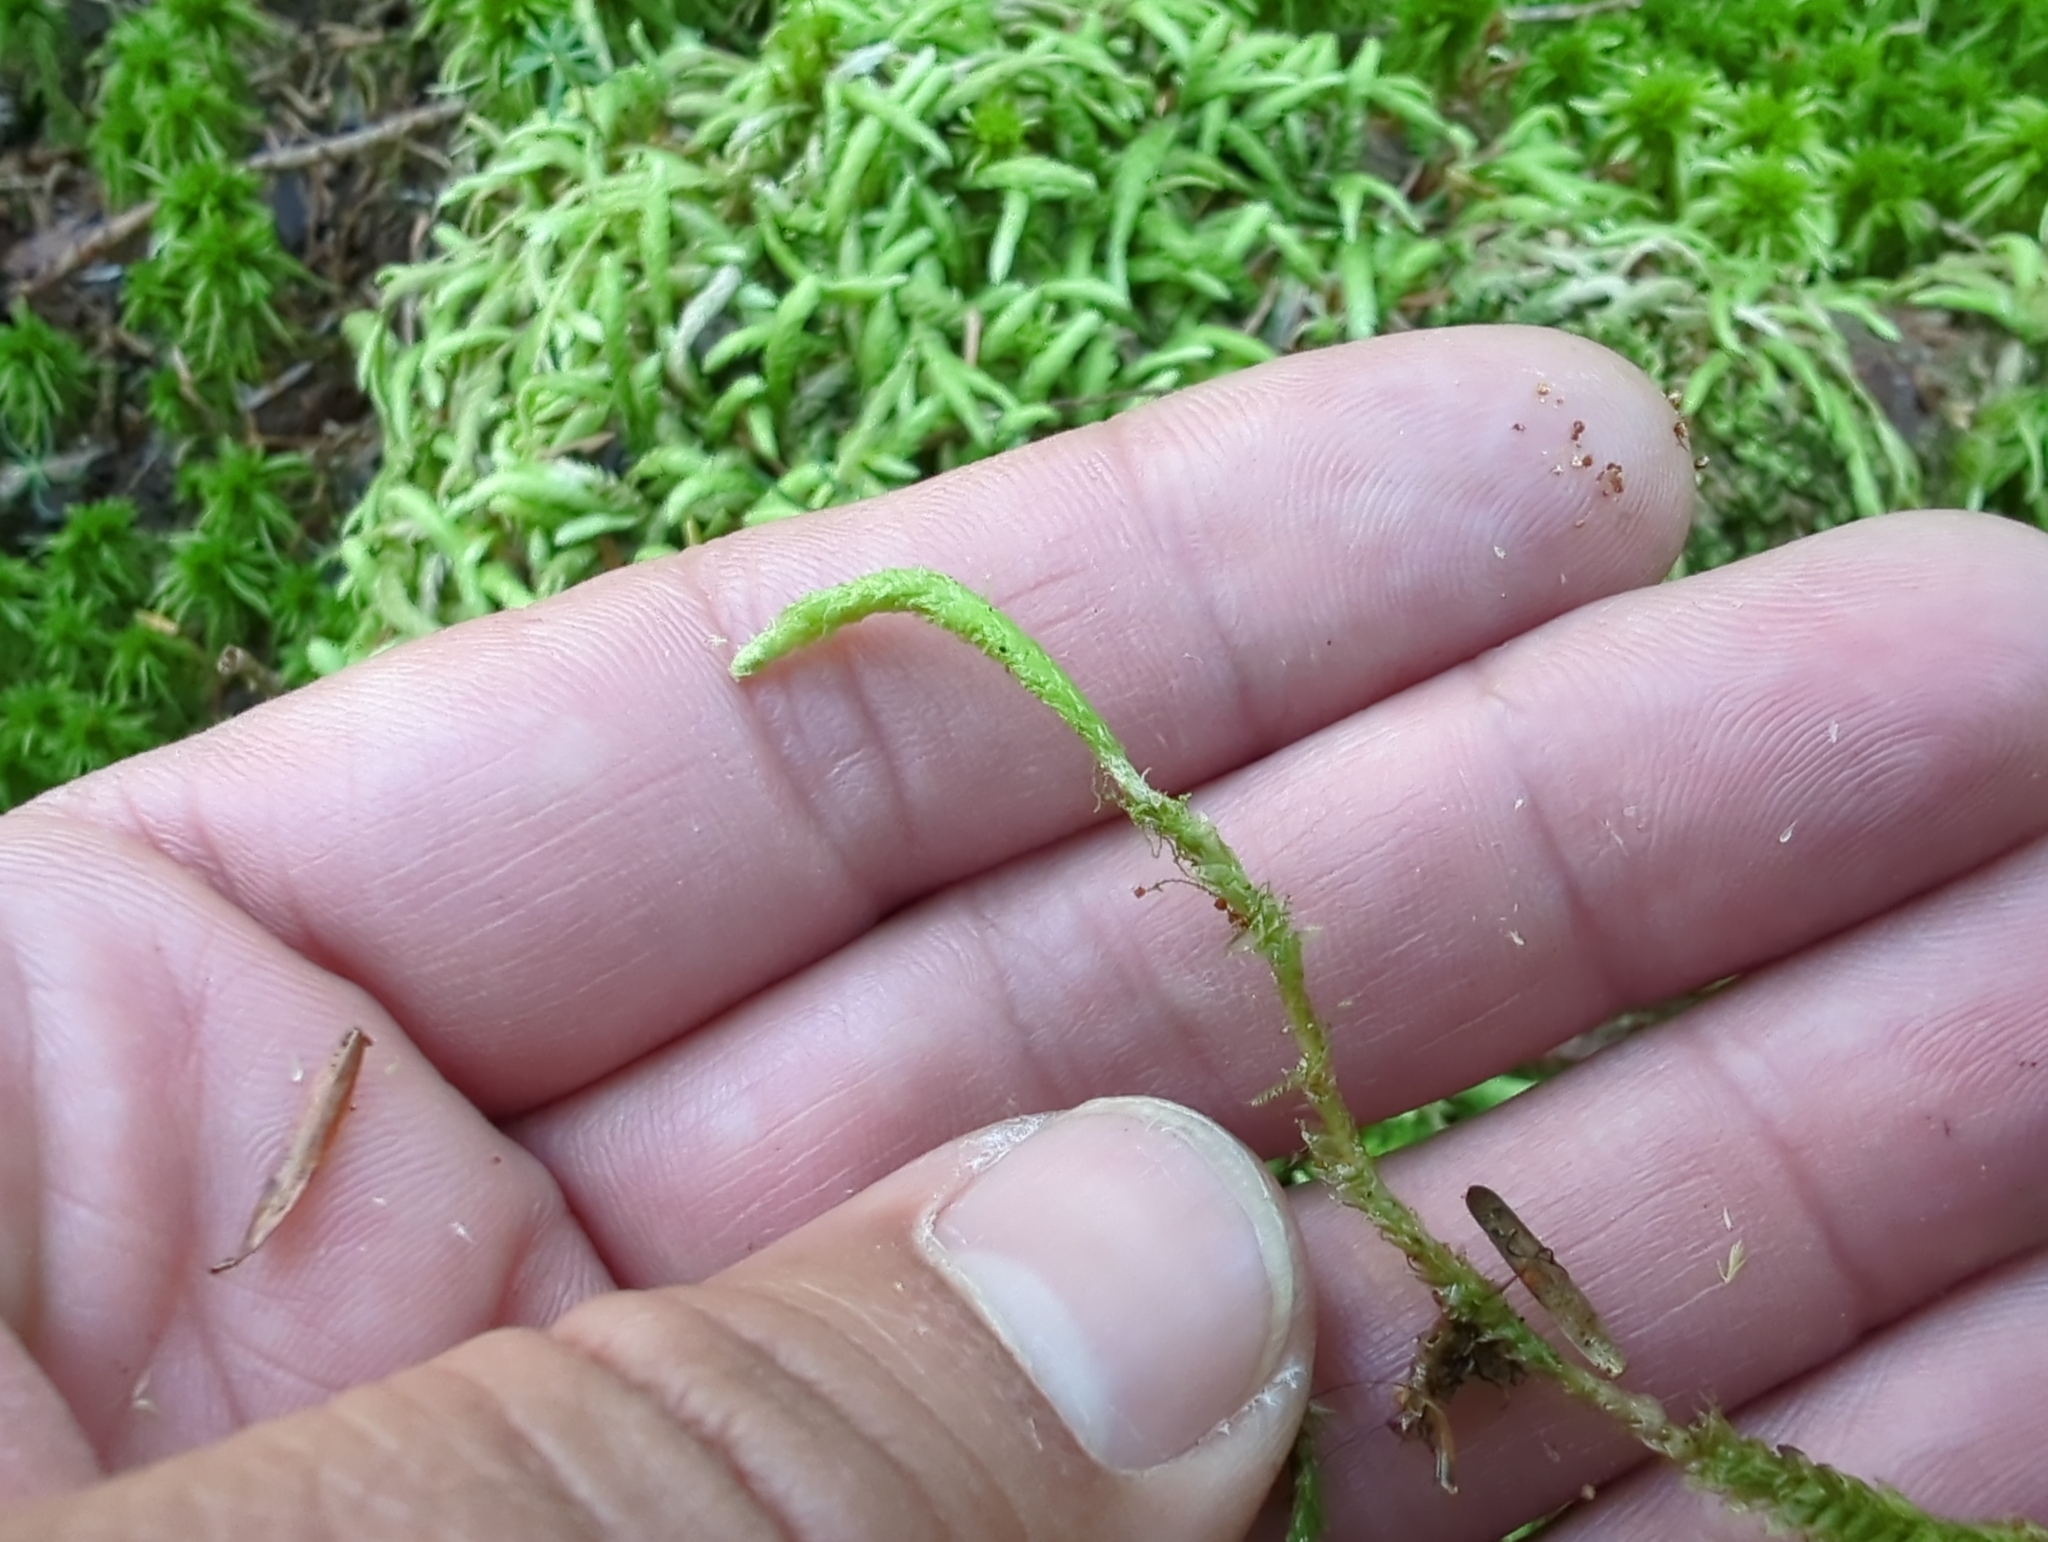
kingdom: Plantae
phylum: Bryophyta
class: Bryopsida
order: Hypnales
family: Plagiotheciaceae
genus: Plagiothecium
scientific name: Plagiothecium undulatum
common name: Waved silk-moss
